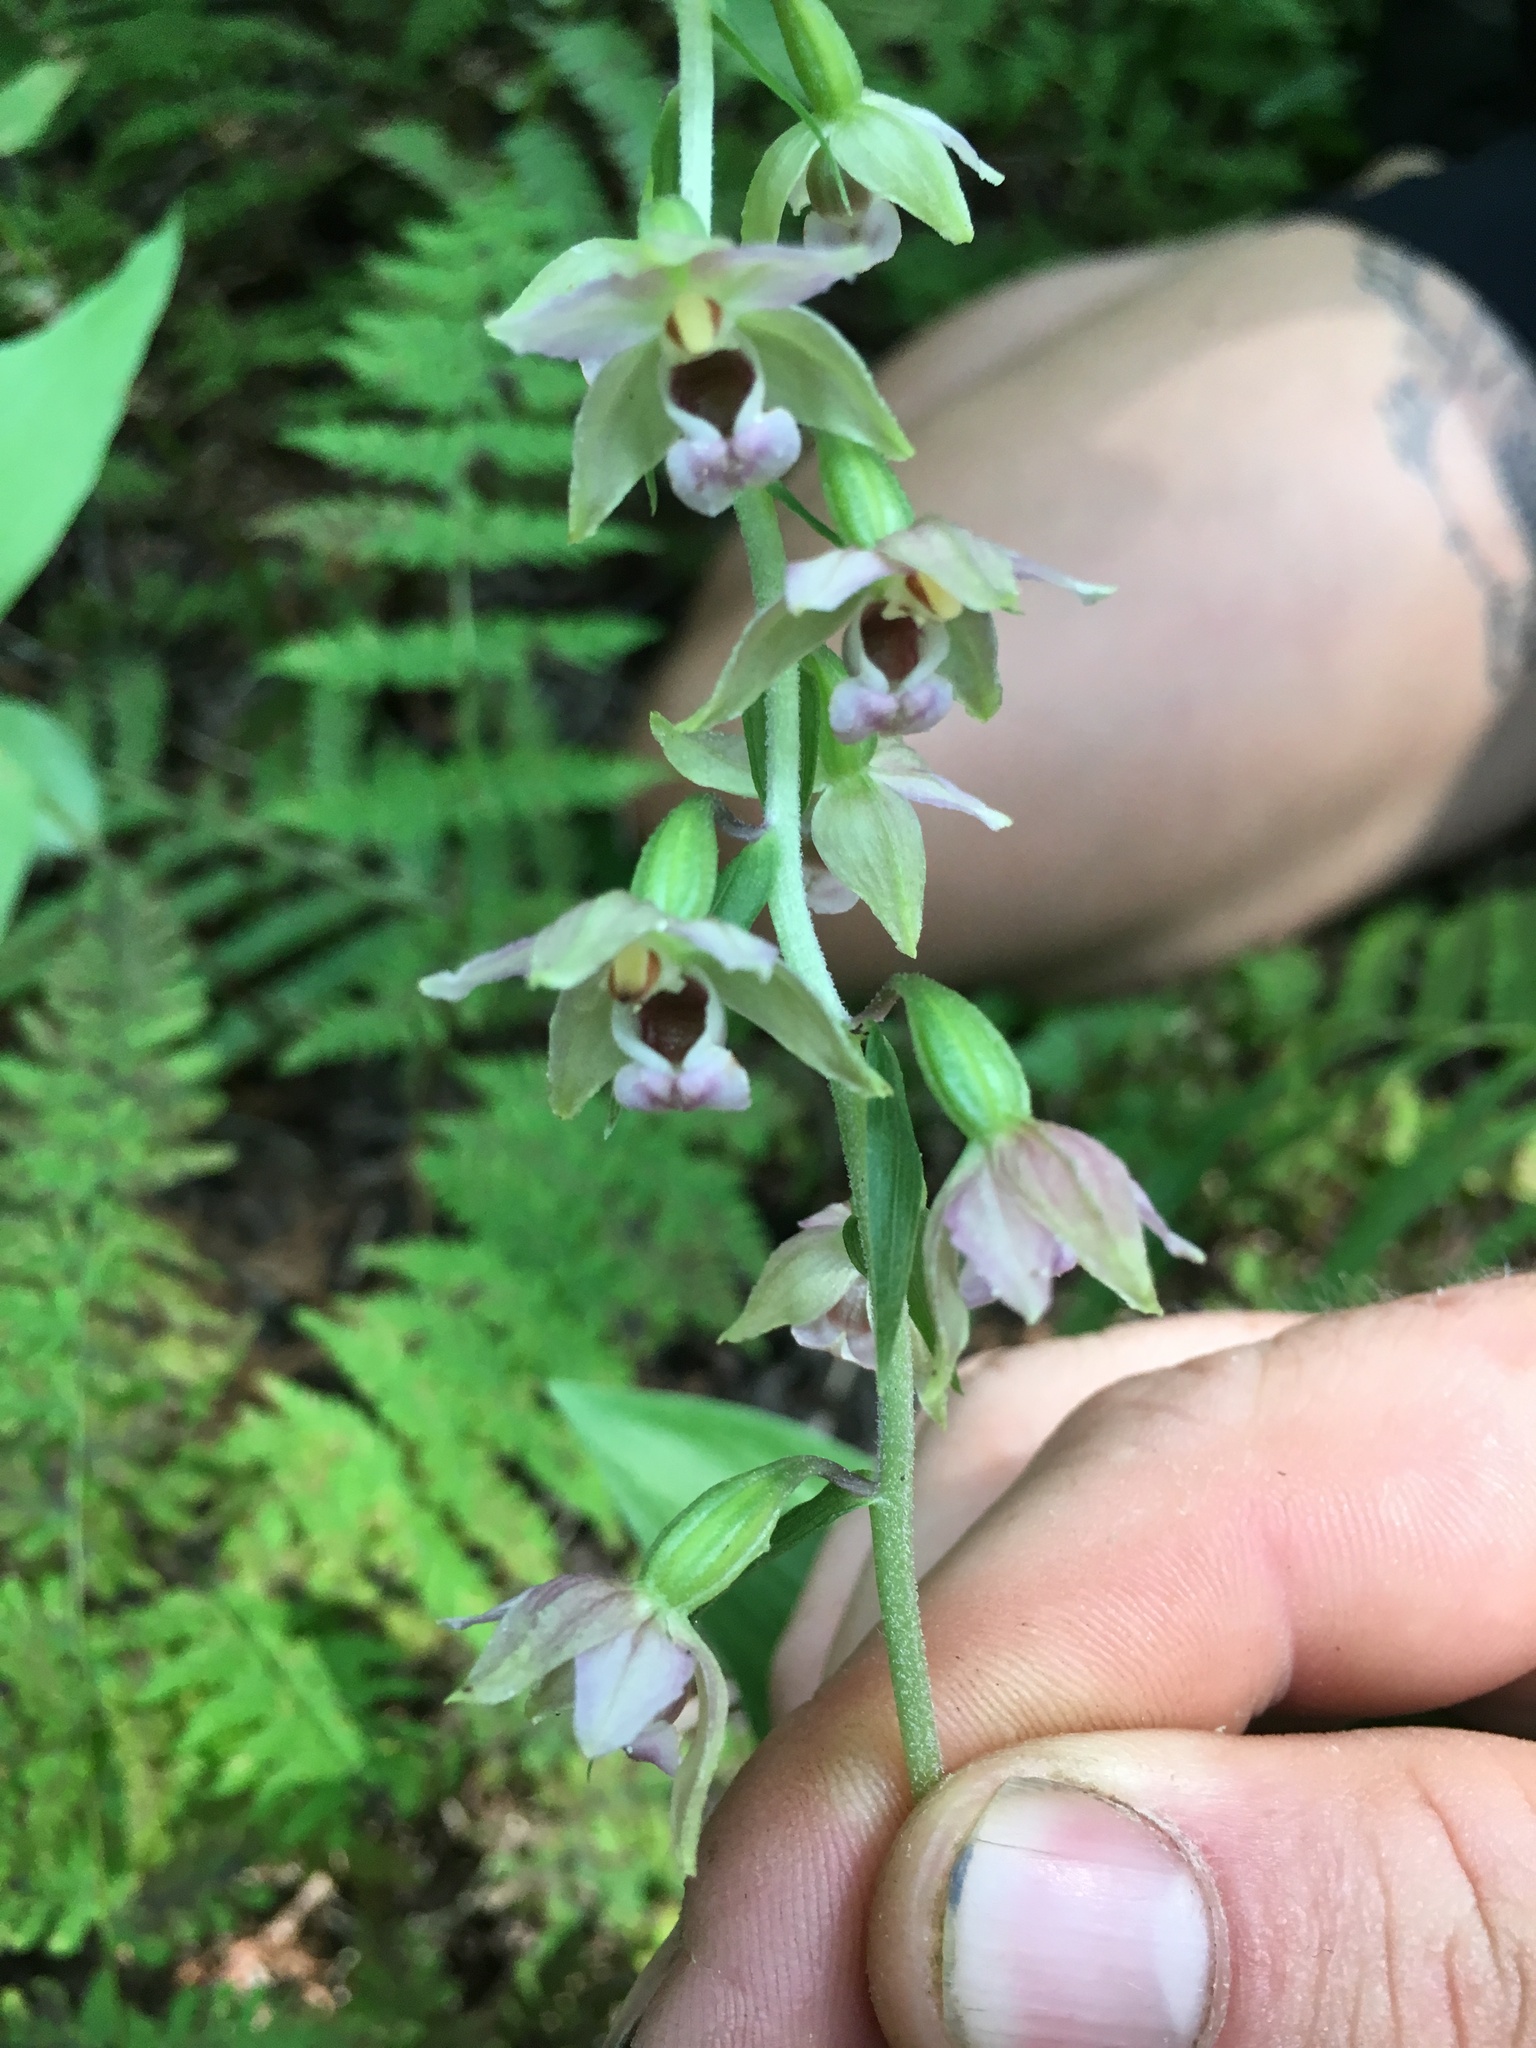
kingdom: Plantae
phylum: Tracheophyta
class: Liliopsida
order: Asparagales
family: Orchidaceae
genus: Epipactis
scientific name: Epipactis helleborine
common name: Broad-leaved helleborine
